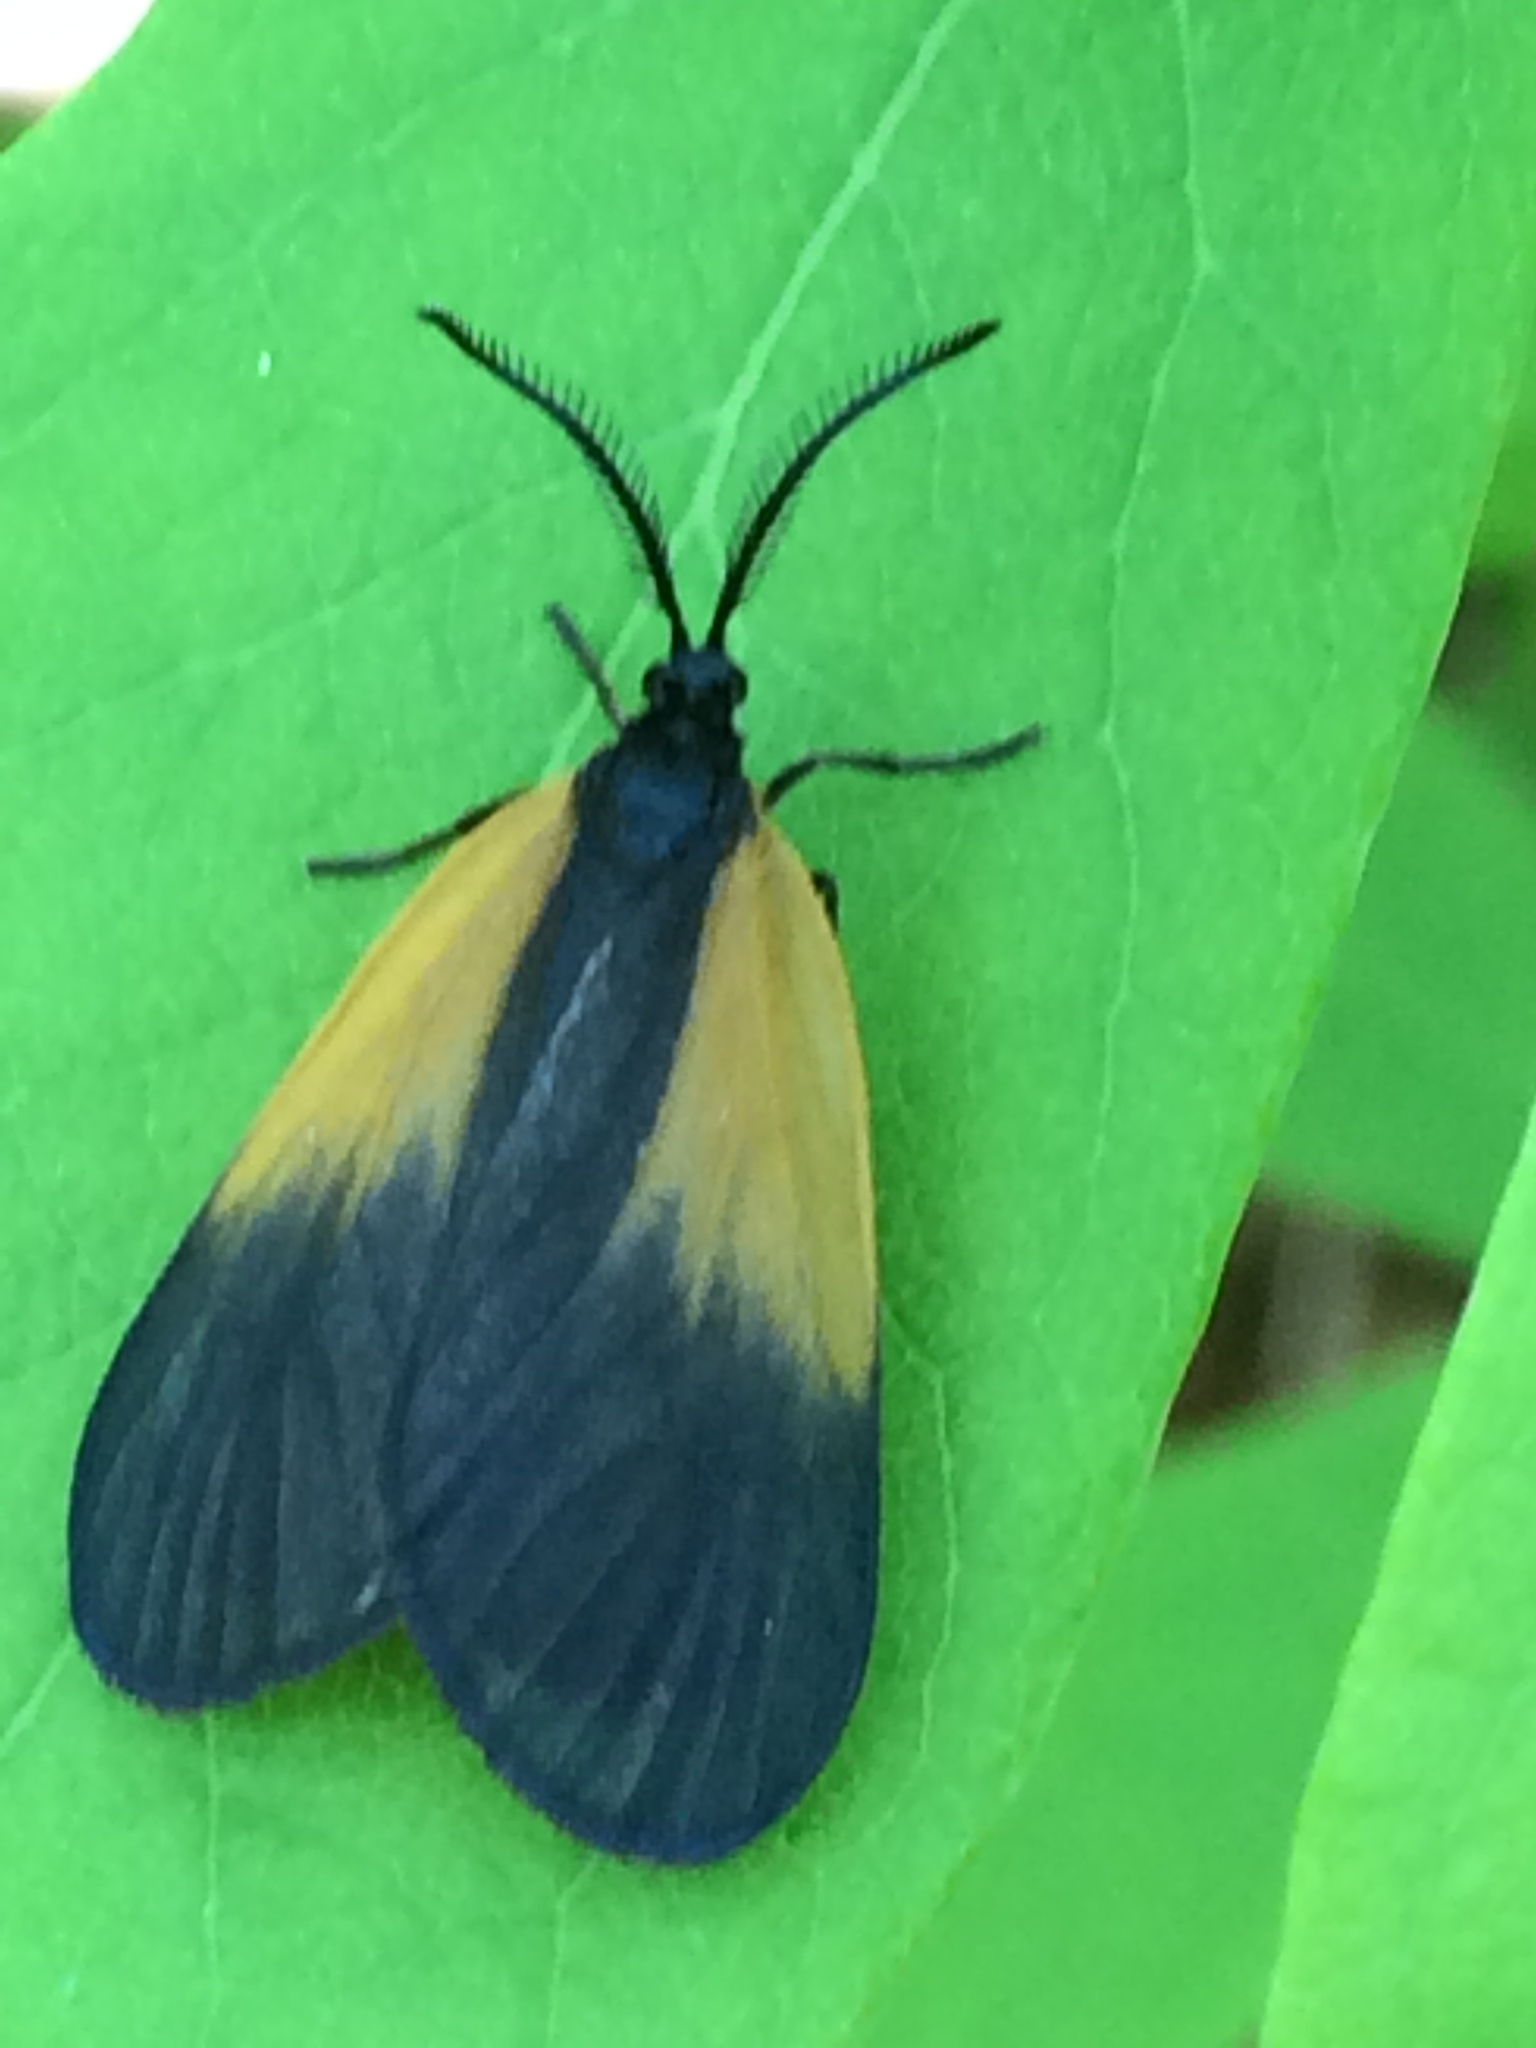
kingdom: Animalia
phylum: Arthropoda
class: Insecta
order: Lepidoptera
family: Zygaenidae
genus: Malthaca
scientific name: Malthaca dimidiata
